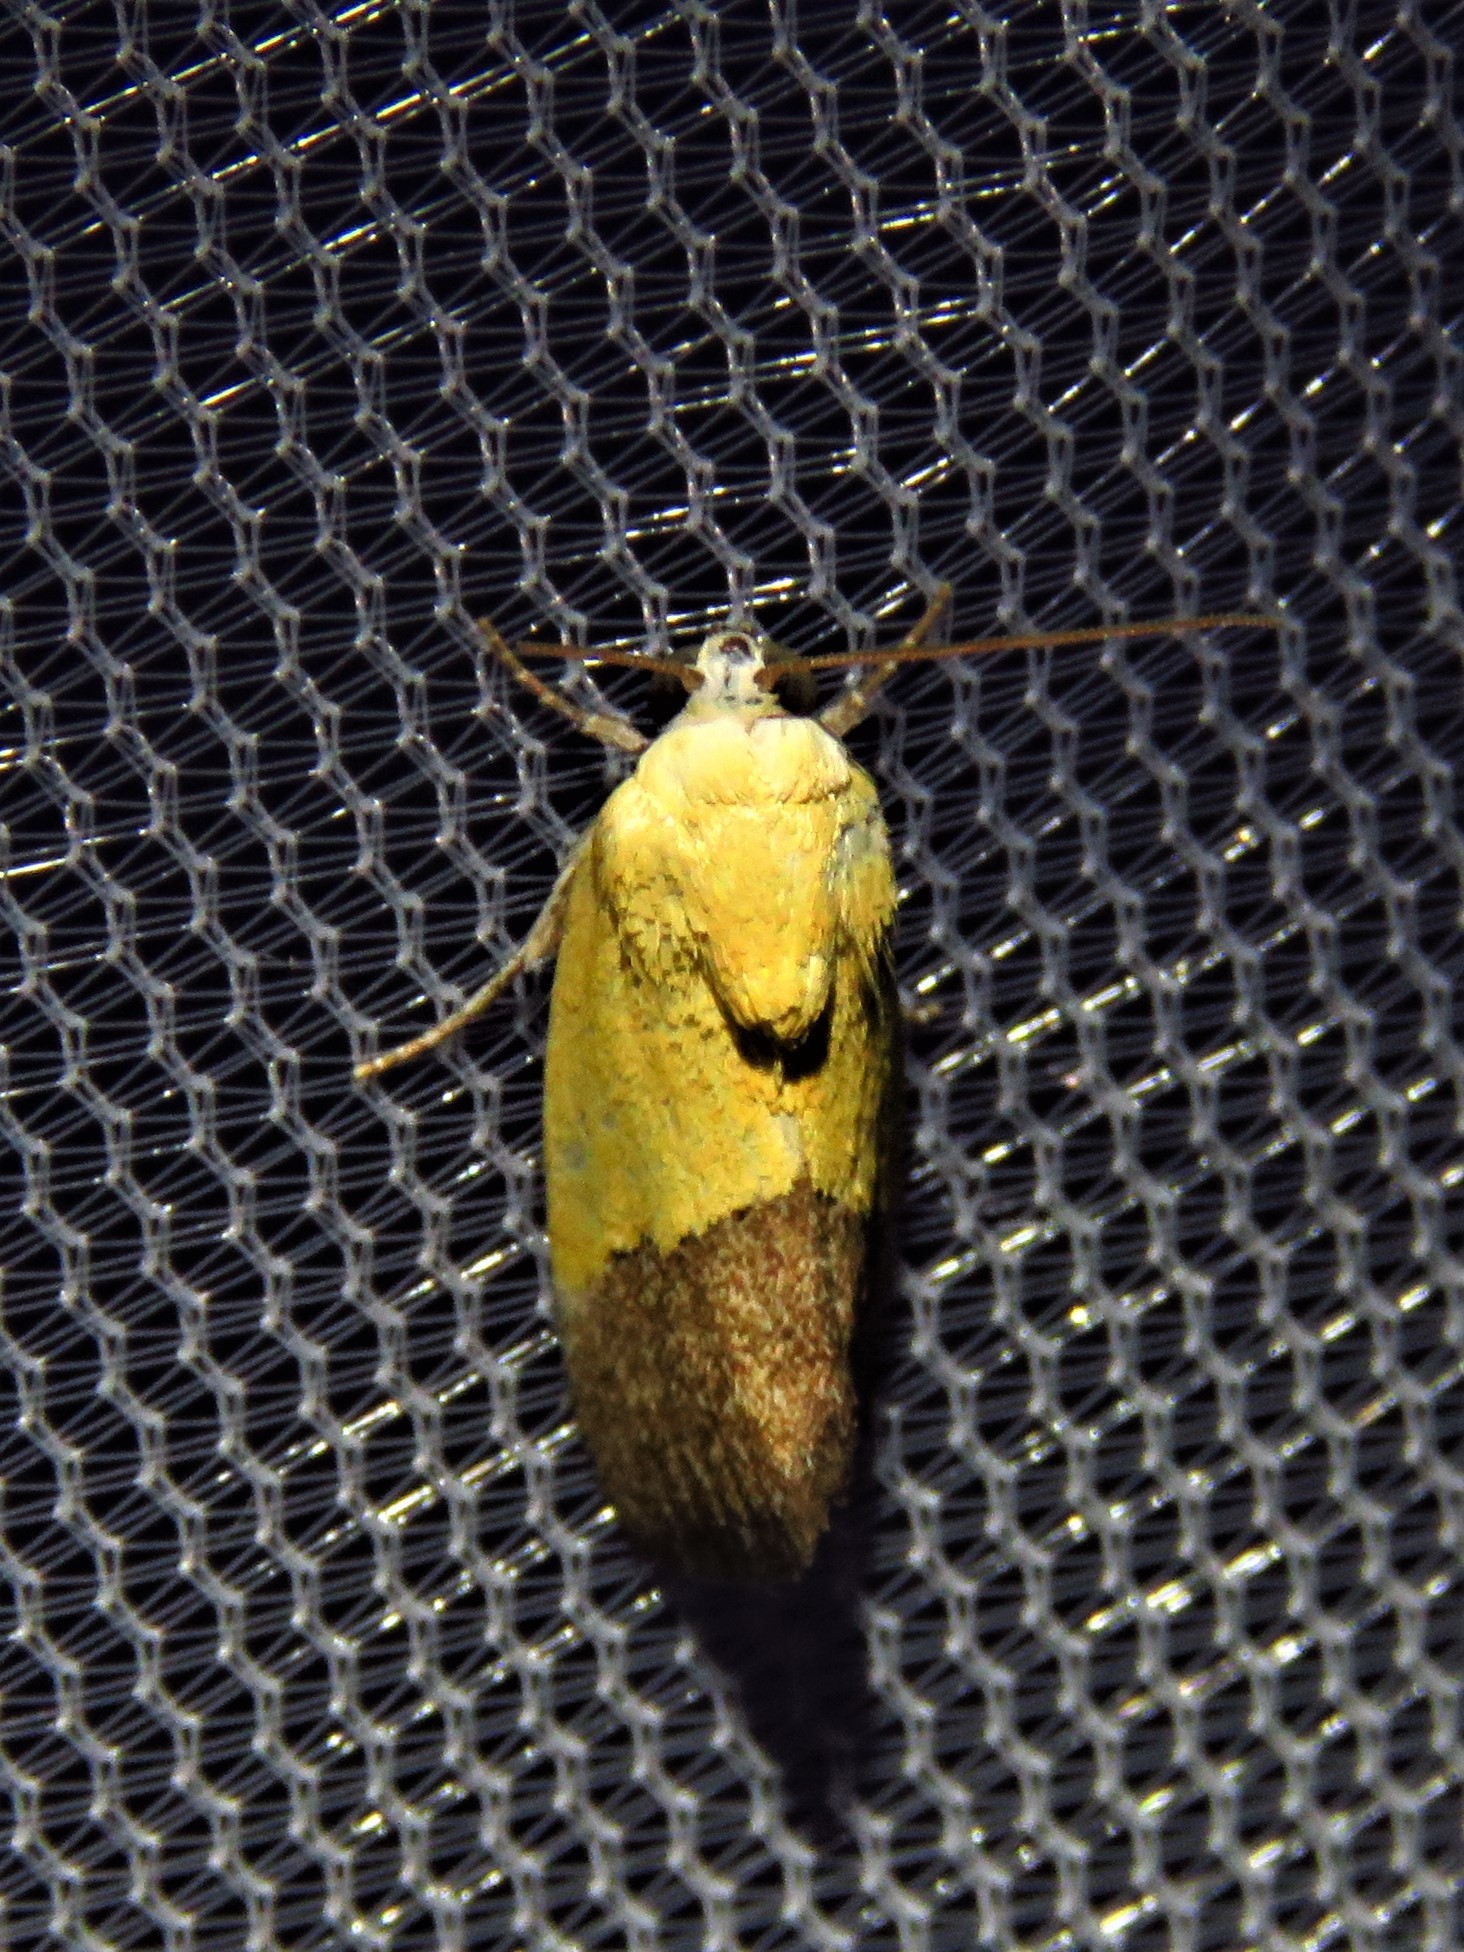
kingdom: Animalia
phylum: Arthropoda
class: Insecta
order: Lepidoptera
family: Noctuidae
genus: Acontia
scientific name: Acontia semiflava
